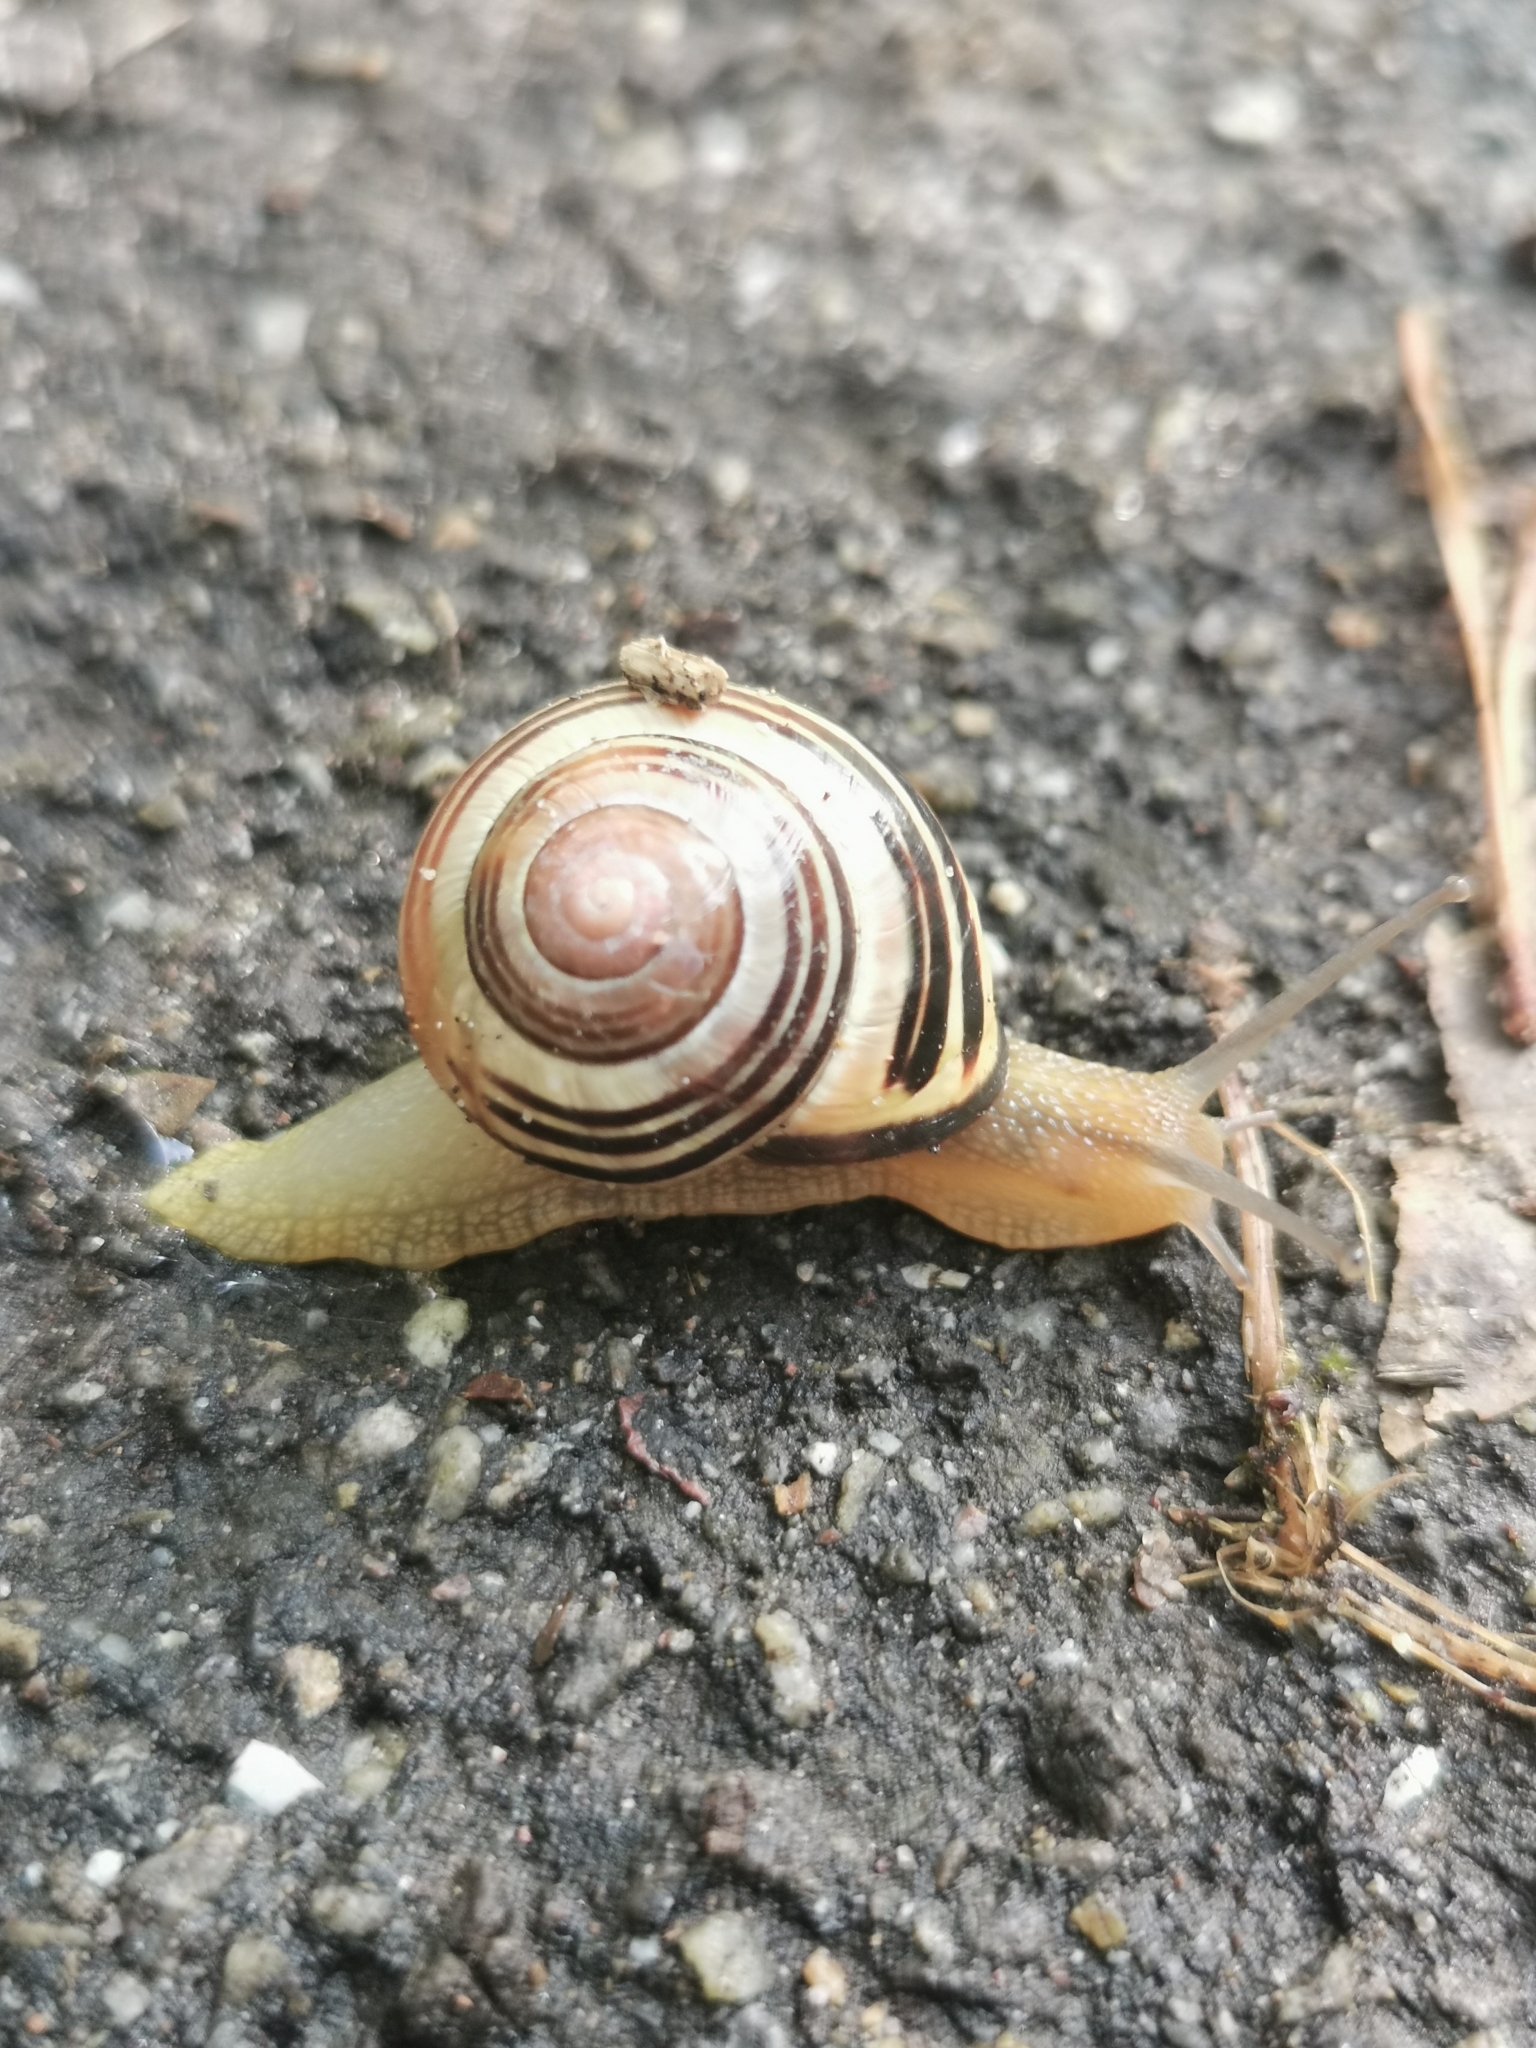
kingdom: Animalia
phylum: Mollusca
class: Gastropoda
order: Stylommatophora
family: Helicidae
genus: Cepaea
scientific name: Cepaea nemoralis
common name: Grovesnail
